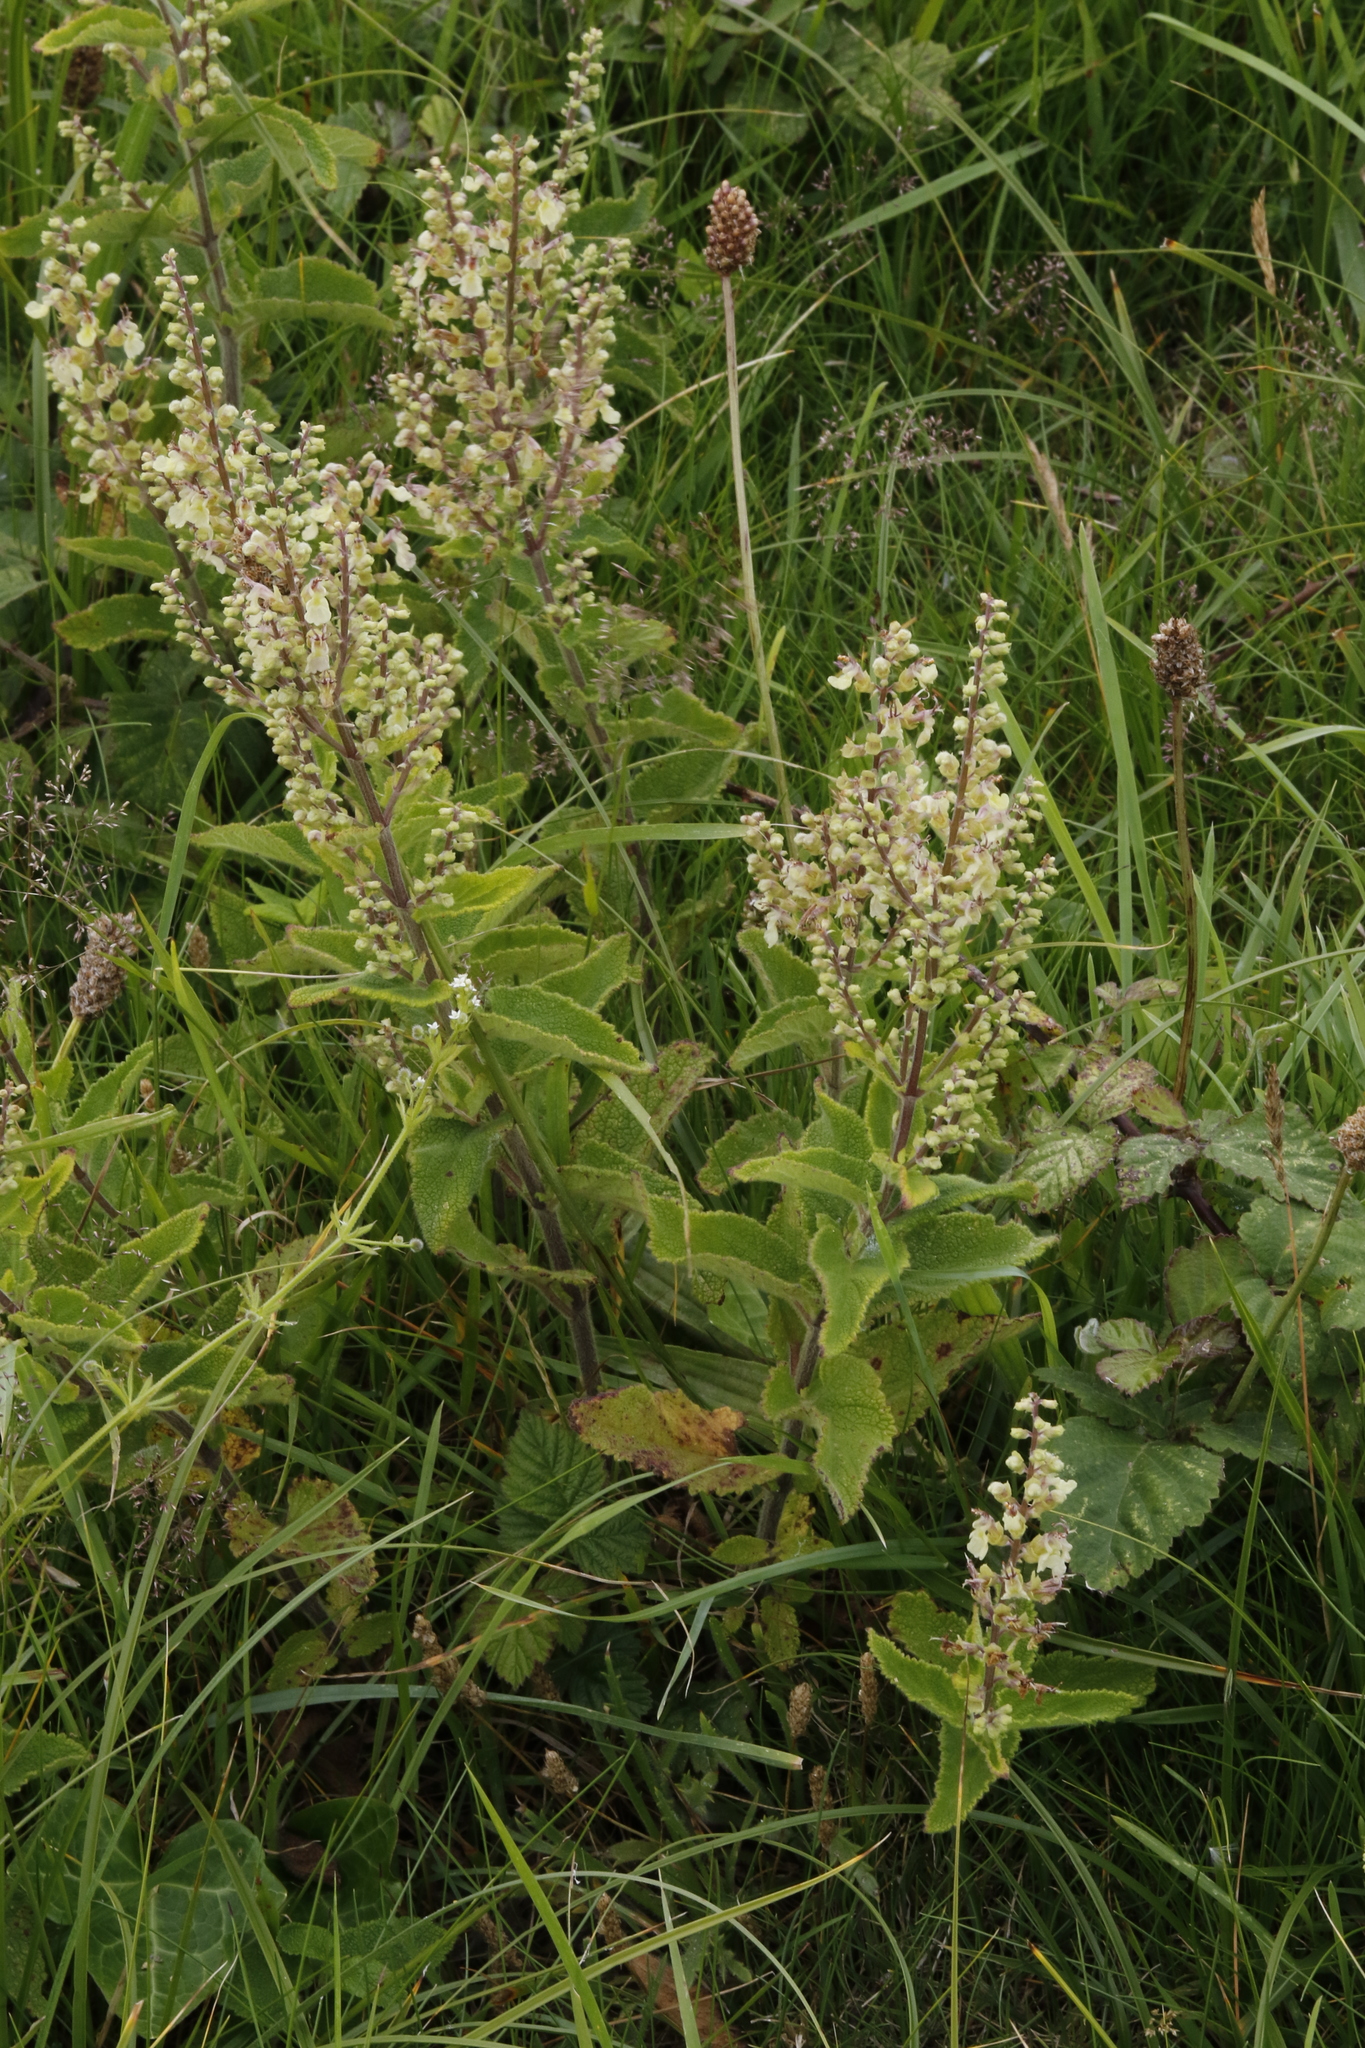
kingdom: Plantae
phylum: Tracheophyta
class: Magnoliopsida
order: Lamiales
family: Lamiaceae
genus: Teucrium
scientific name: Teucrium scorodonia
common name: Woodland germander
